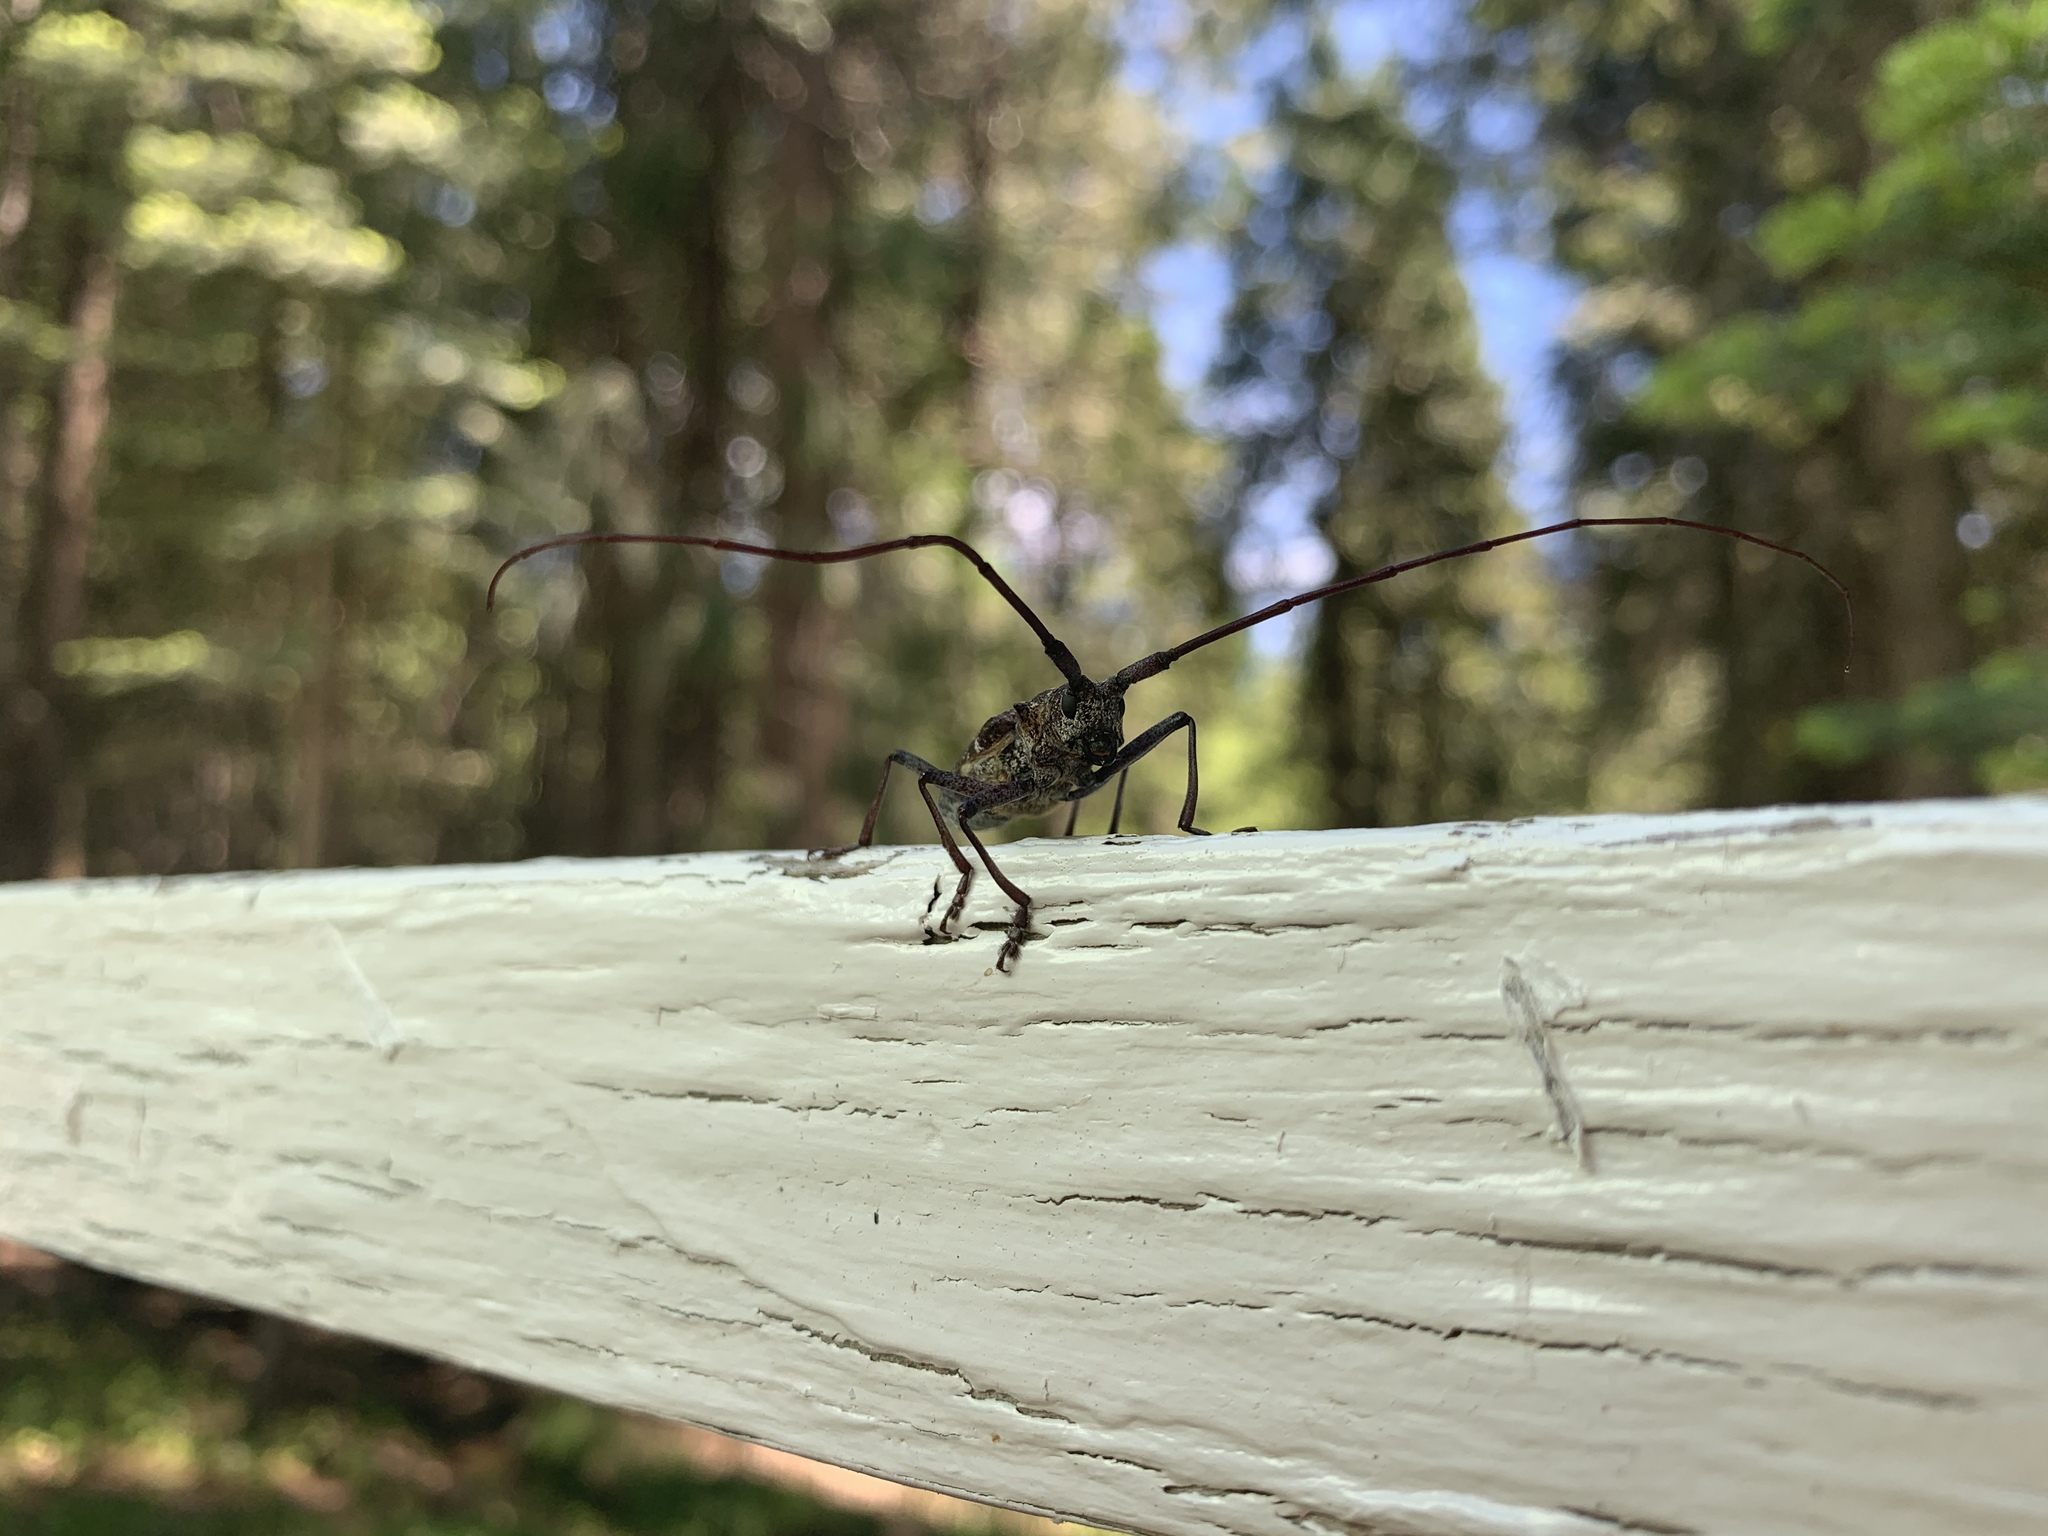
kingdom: Animalia
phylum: Arthropoda
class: Insecta
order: Coleoptera
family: Cerambycidae
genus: Monochamus
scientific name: Monochamus obtusus
